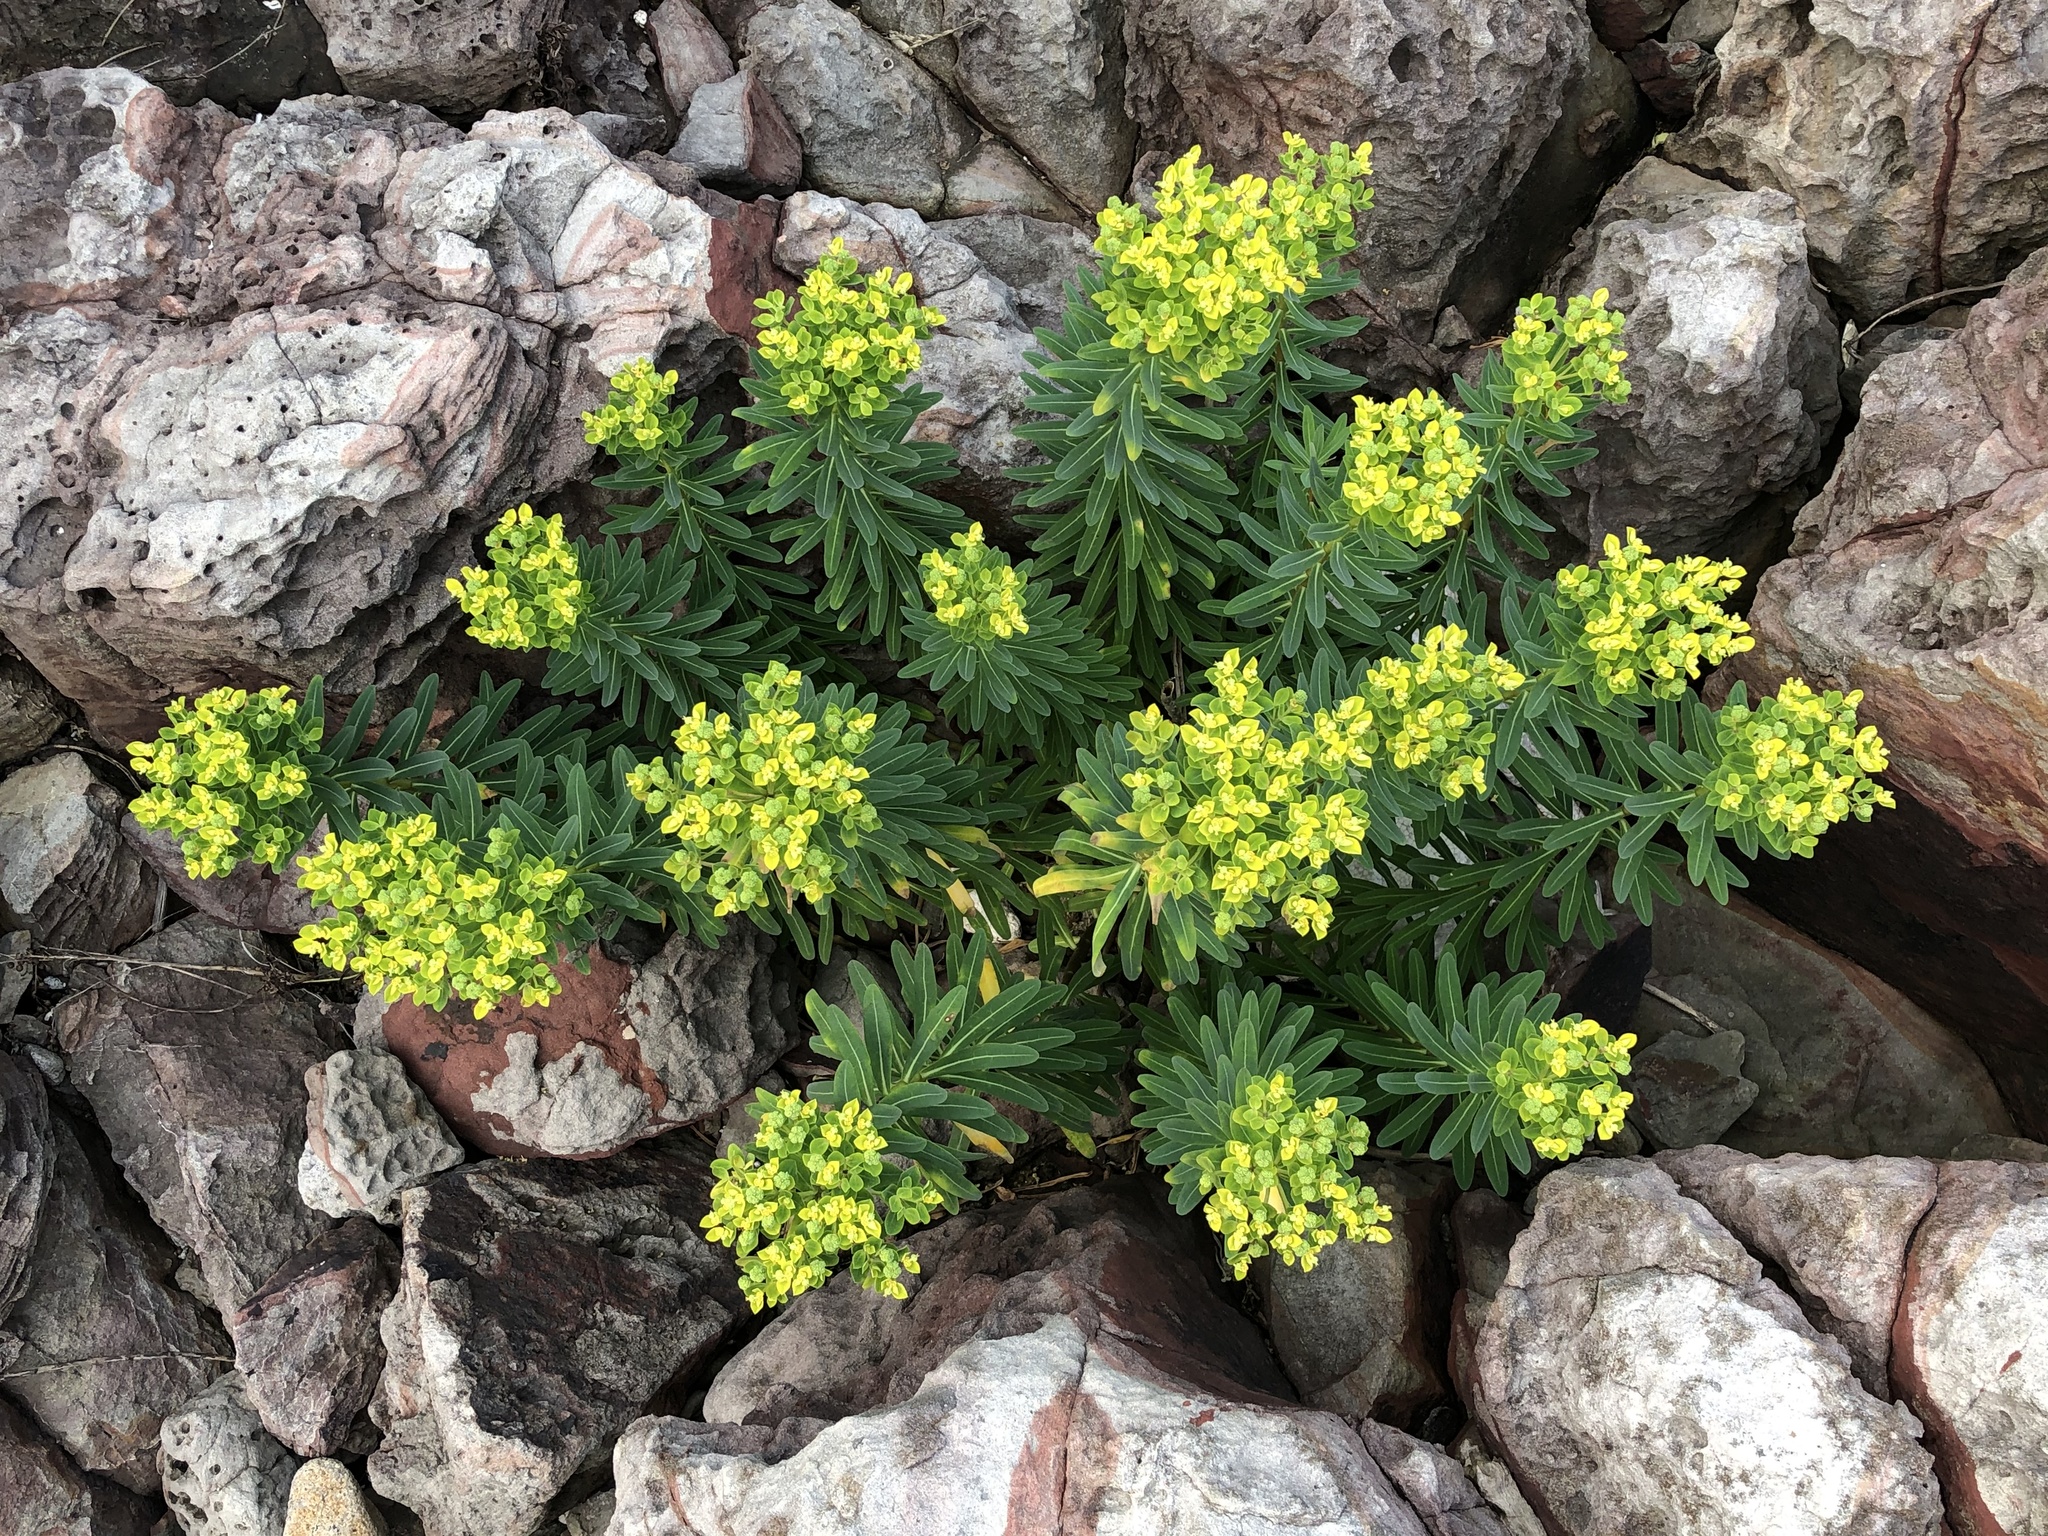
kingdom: Plantae
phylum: Tracheophyta
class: Magnoliopsida
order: Malpighiales
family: Euphorbiaceae
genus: Euphorbia
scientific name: Euphorbia jolkinii
